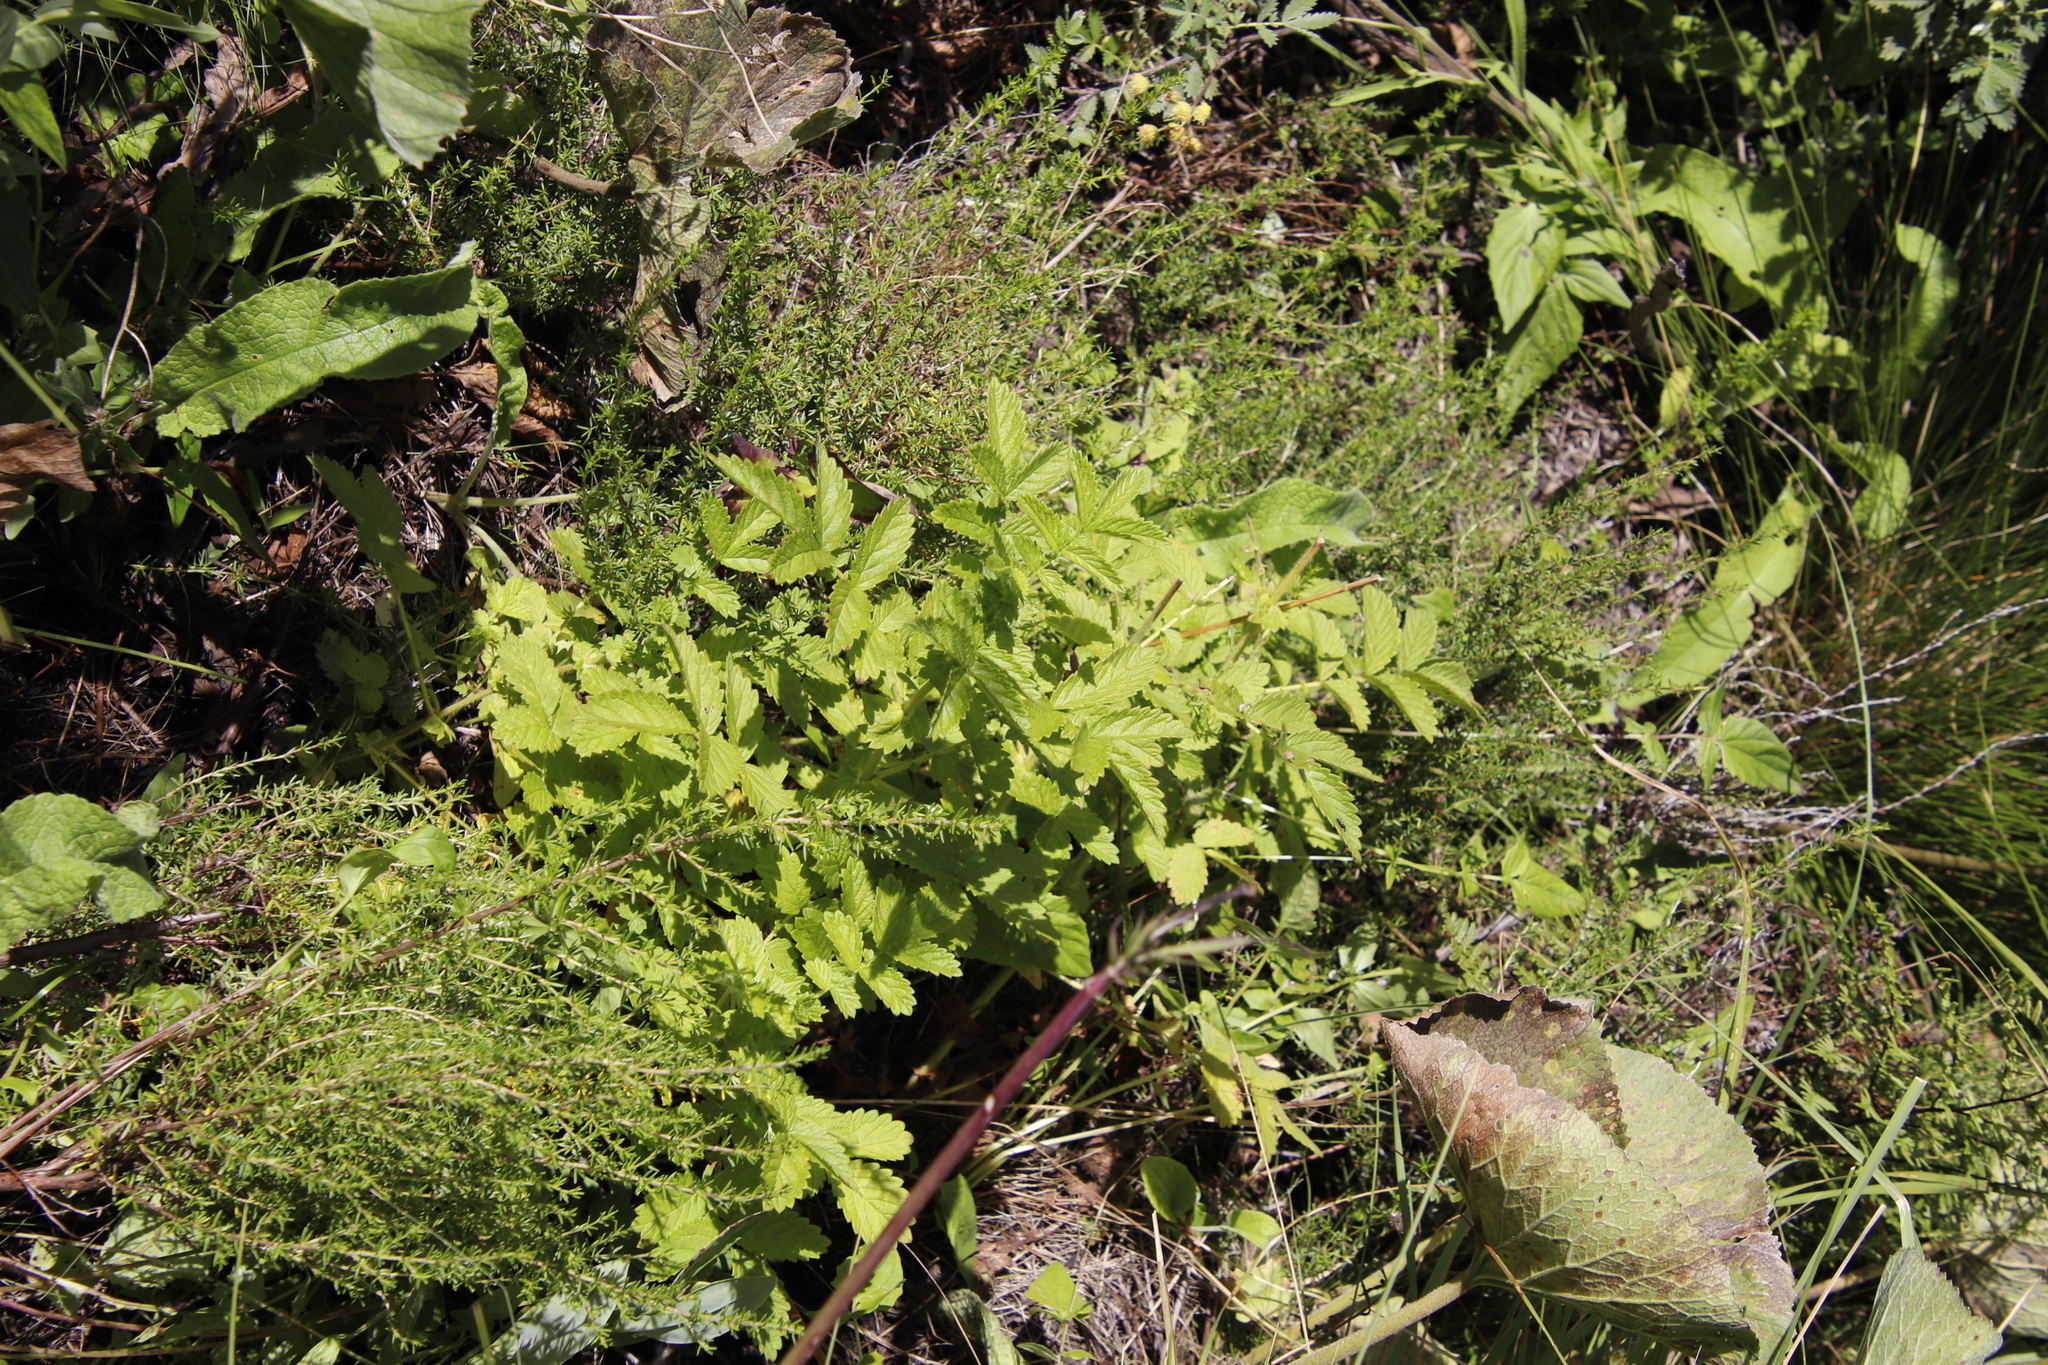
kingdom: Plantae
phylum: Tracheophyta
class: Magnoliopsida
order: Rosales
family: Rosaceae
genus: Leucosidea
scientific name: Leucosidea sericea
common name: Oldwood
